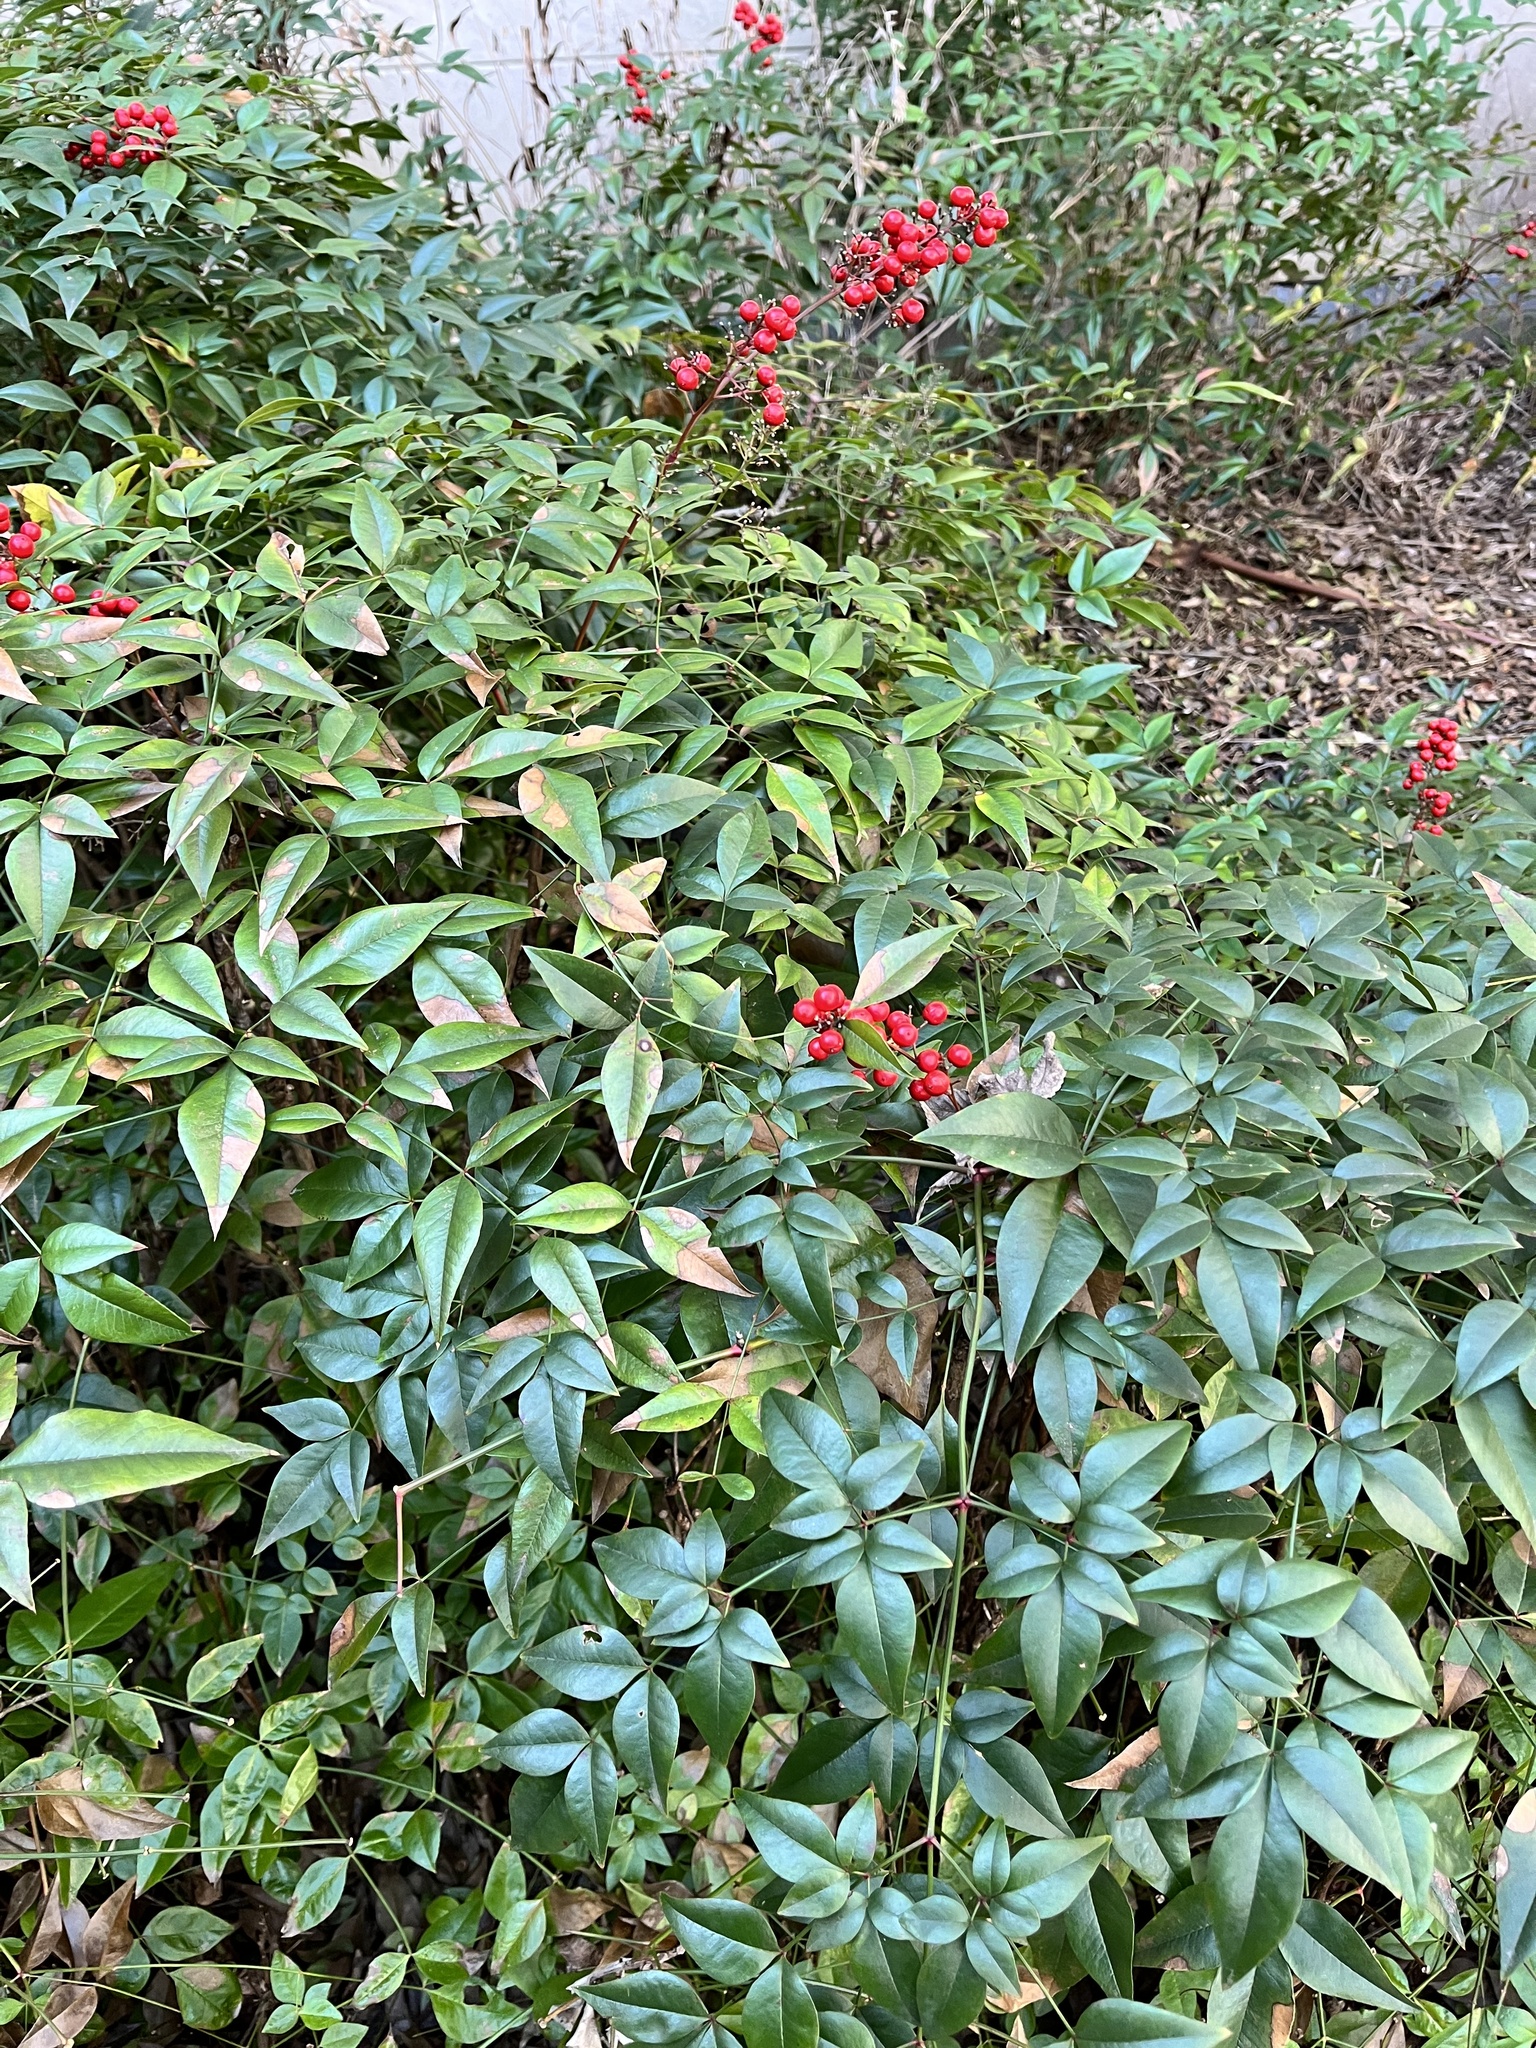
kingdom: Plantae
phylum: Tracheophyta
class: Magnoliopsida
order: Ranunculales
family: Berberidaceae
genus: Nandina
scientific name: Nandina domestica
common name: Sacred bamboo
